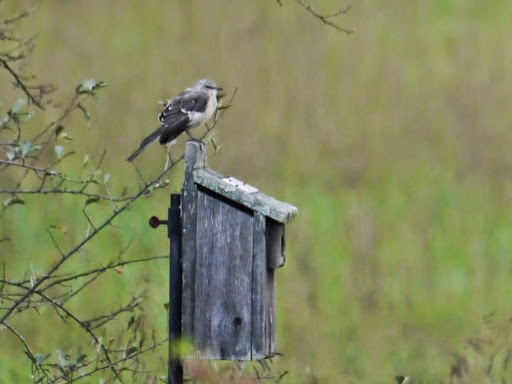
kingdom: Animalia
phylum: Chordata
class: Aves
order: Passeriformes
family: Mimidae
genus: Mimus
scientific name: Mimus polyglottos
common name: Northern mockingbird
